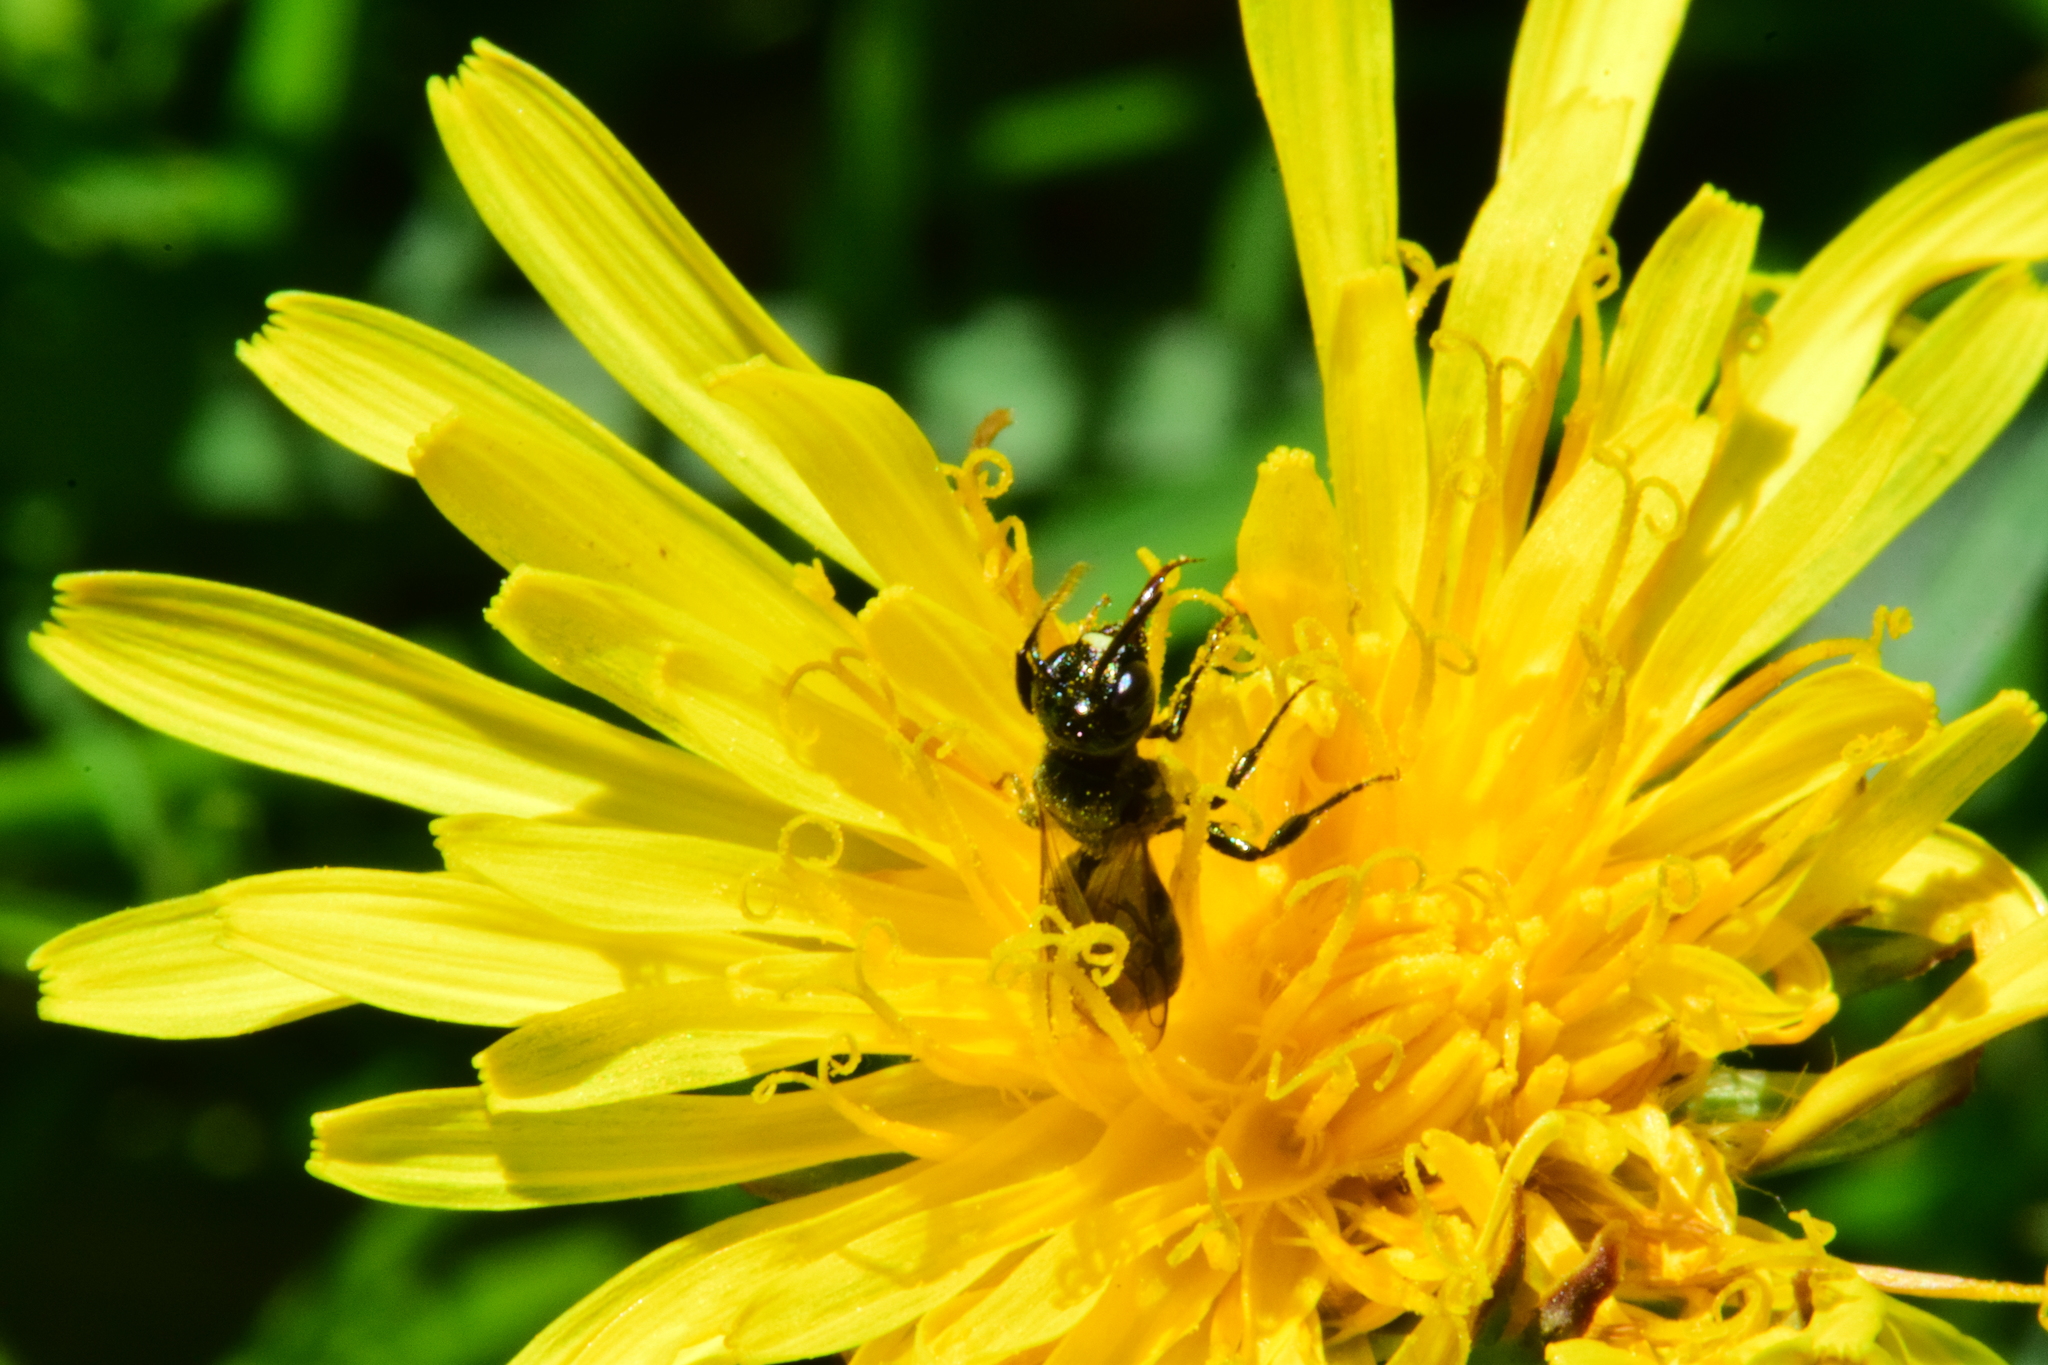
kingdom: Animalia
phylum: Arthropoda
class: Insecta
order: Hymenoptera
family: Apidae
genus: Ceratina
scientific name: Ceratina calcarata
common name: Spurred carpenter bee
